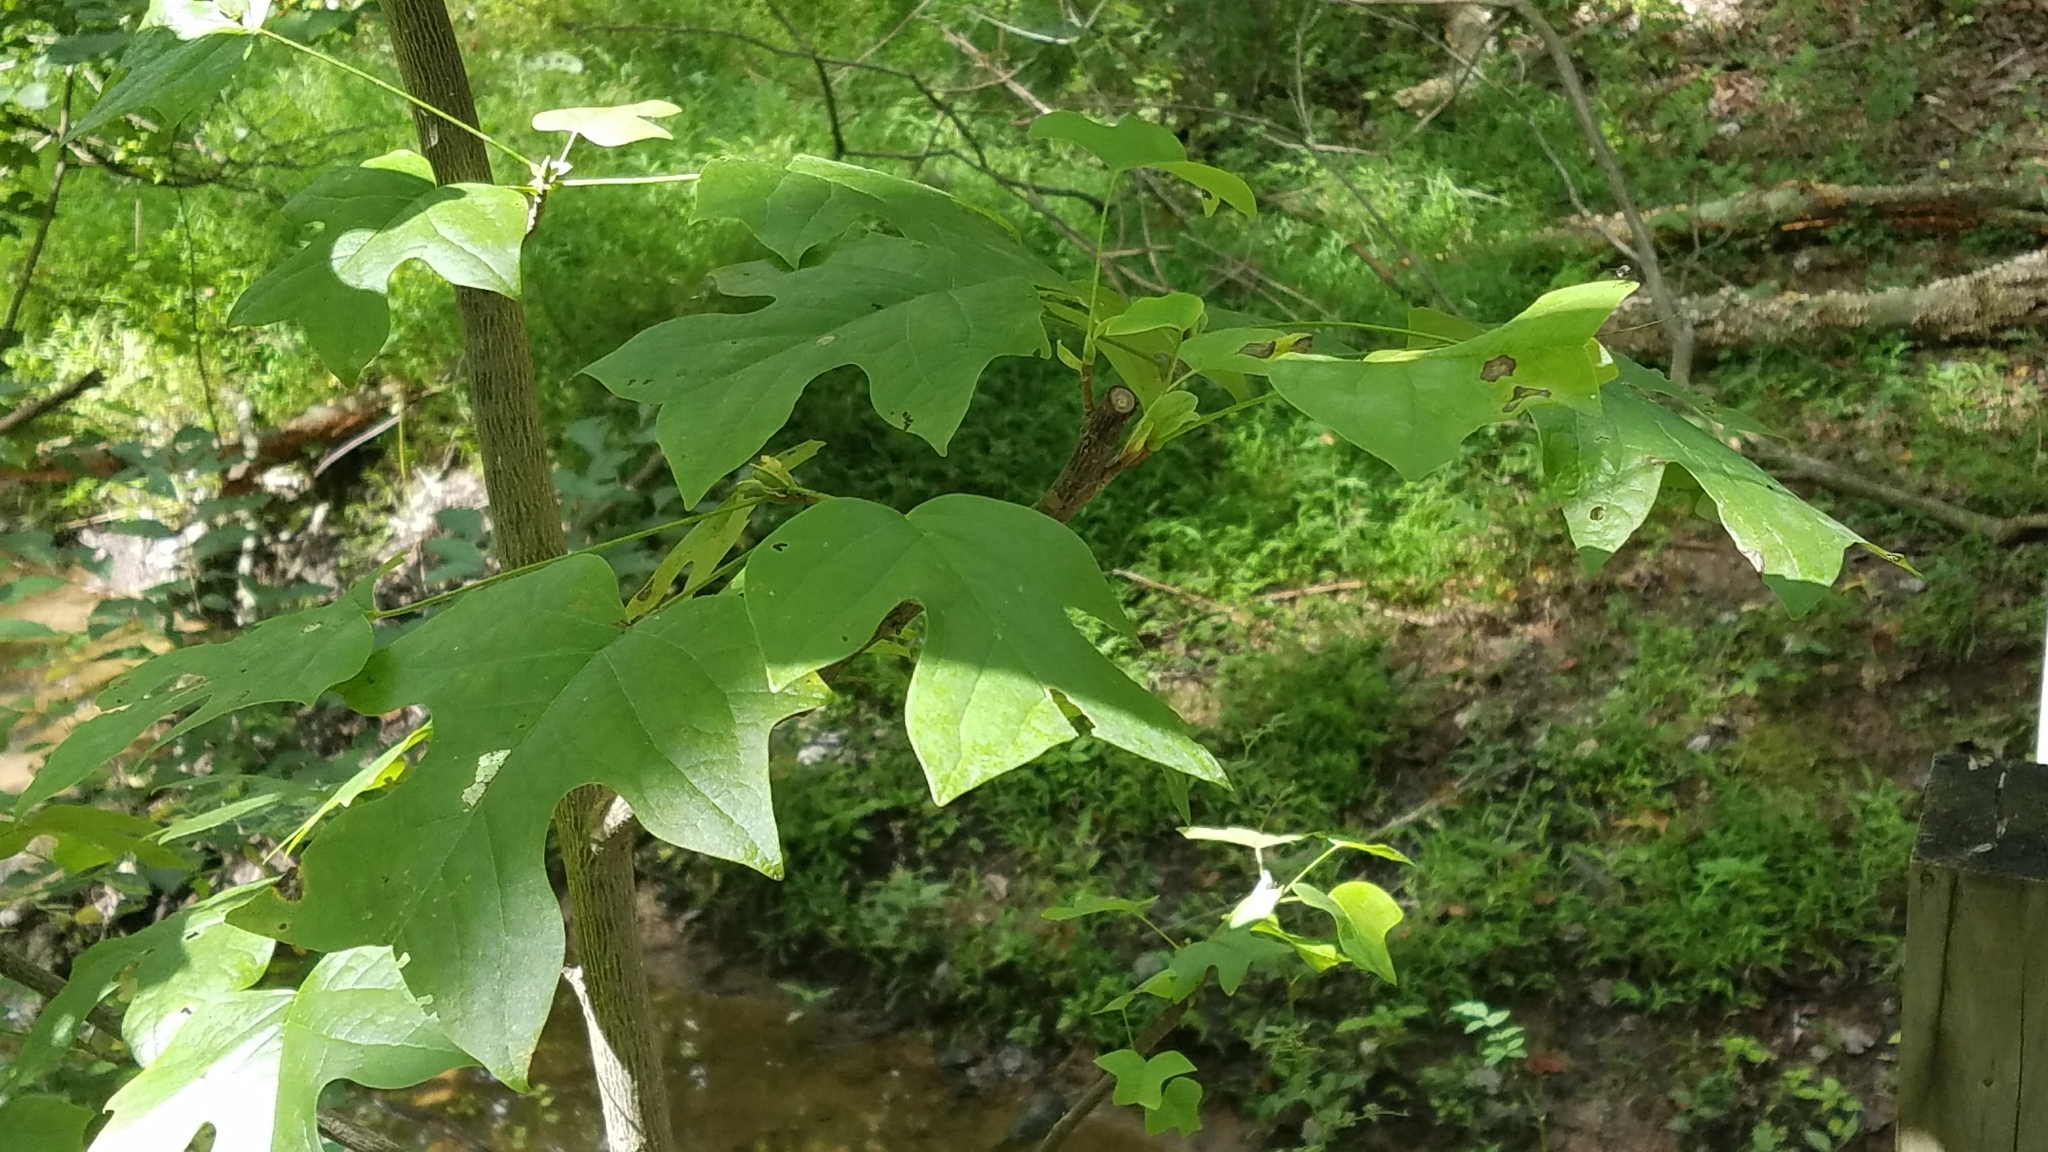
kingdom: Plantae
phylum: Tracheophyta
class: Magnoliopsida
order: Magnoliales
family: Magnoliaceae
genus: Liriodendron
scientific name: Liriodendron tulipifera
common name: Tulip tree
